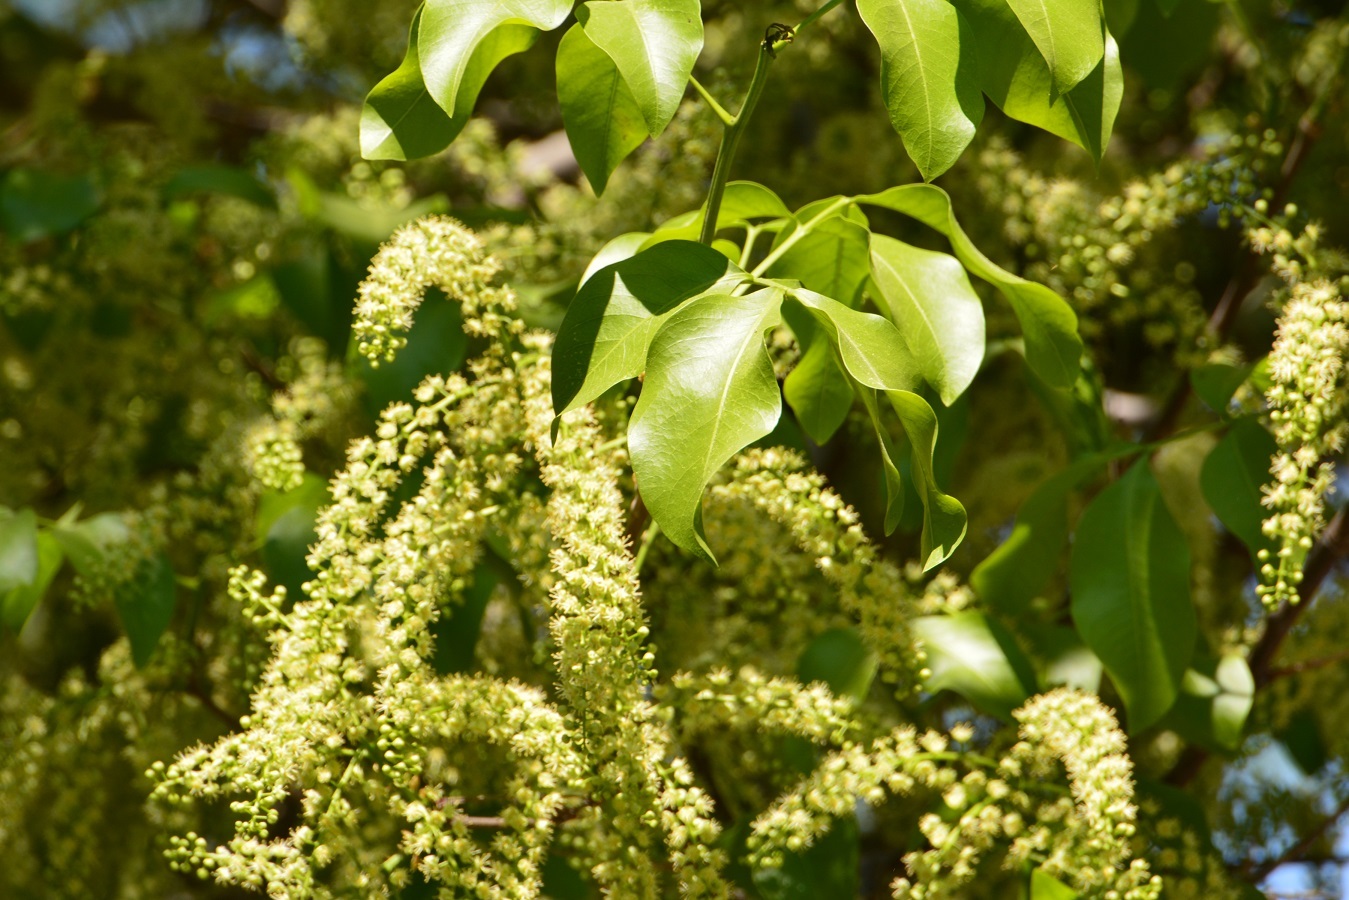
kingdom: Plantae
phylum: Tracheophyta
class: Magnoliopsida
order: Sapindales
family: Sapindaceae
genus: Melicoccus
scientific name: Melicoccus bijugatus
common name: Spanish lime
